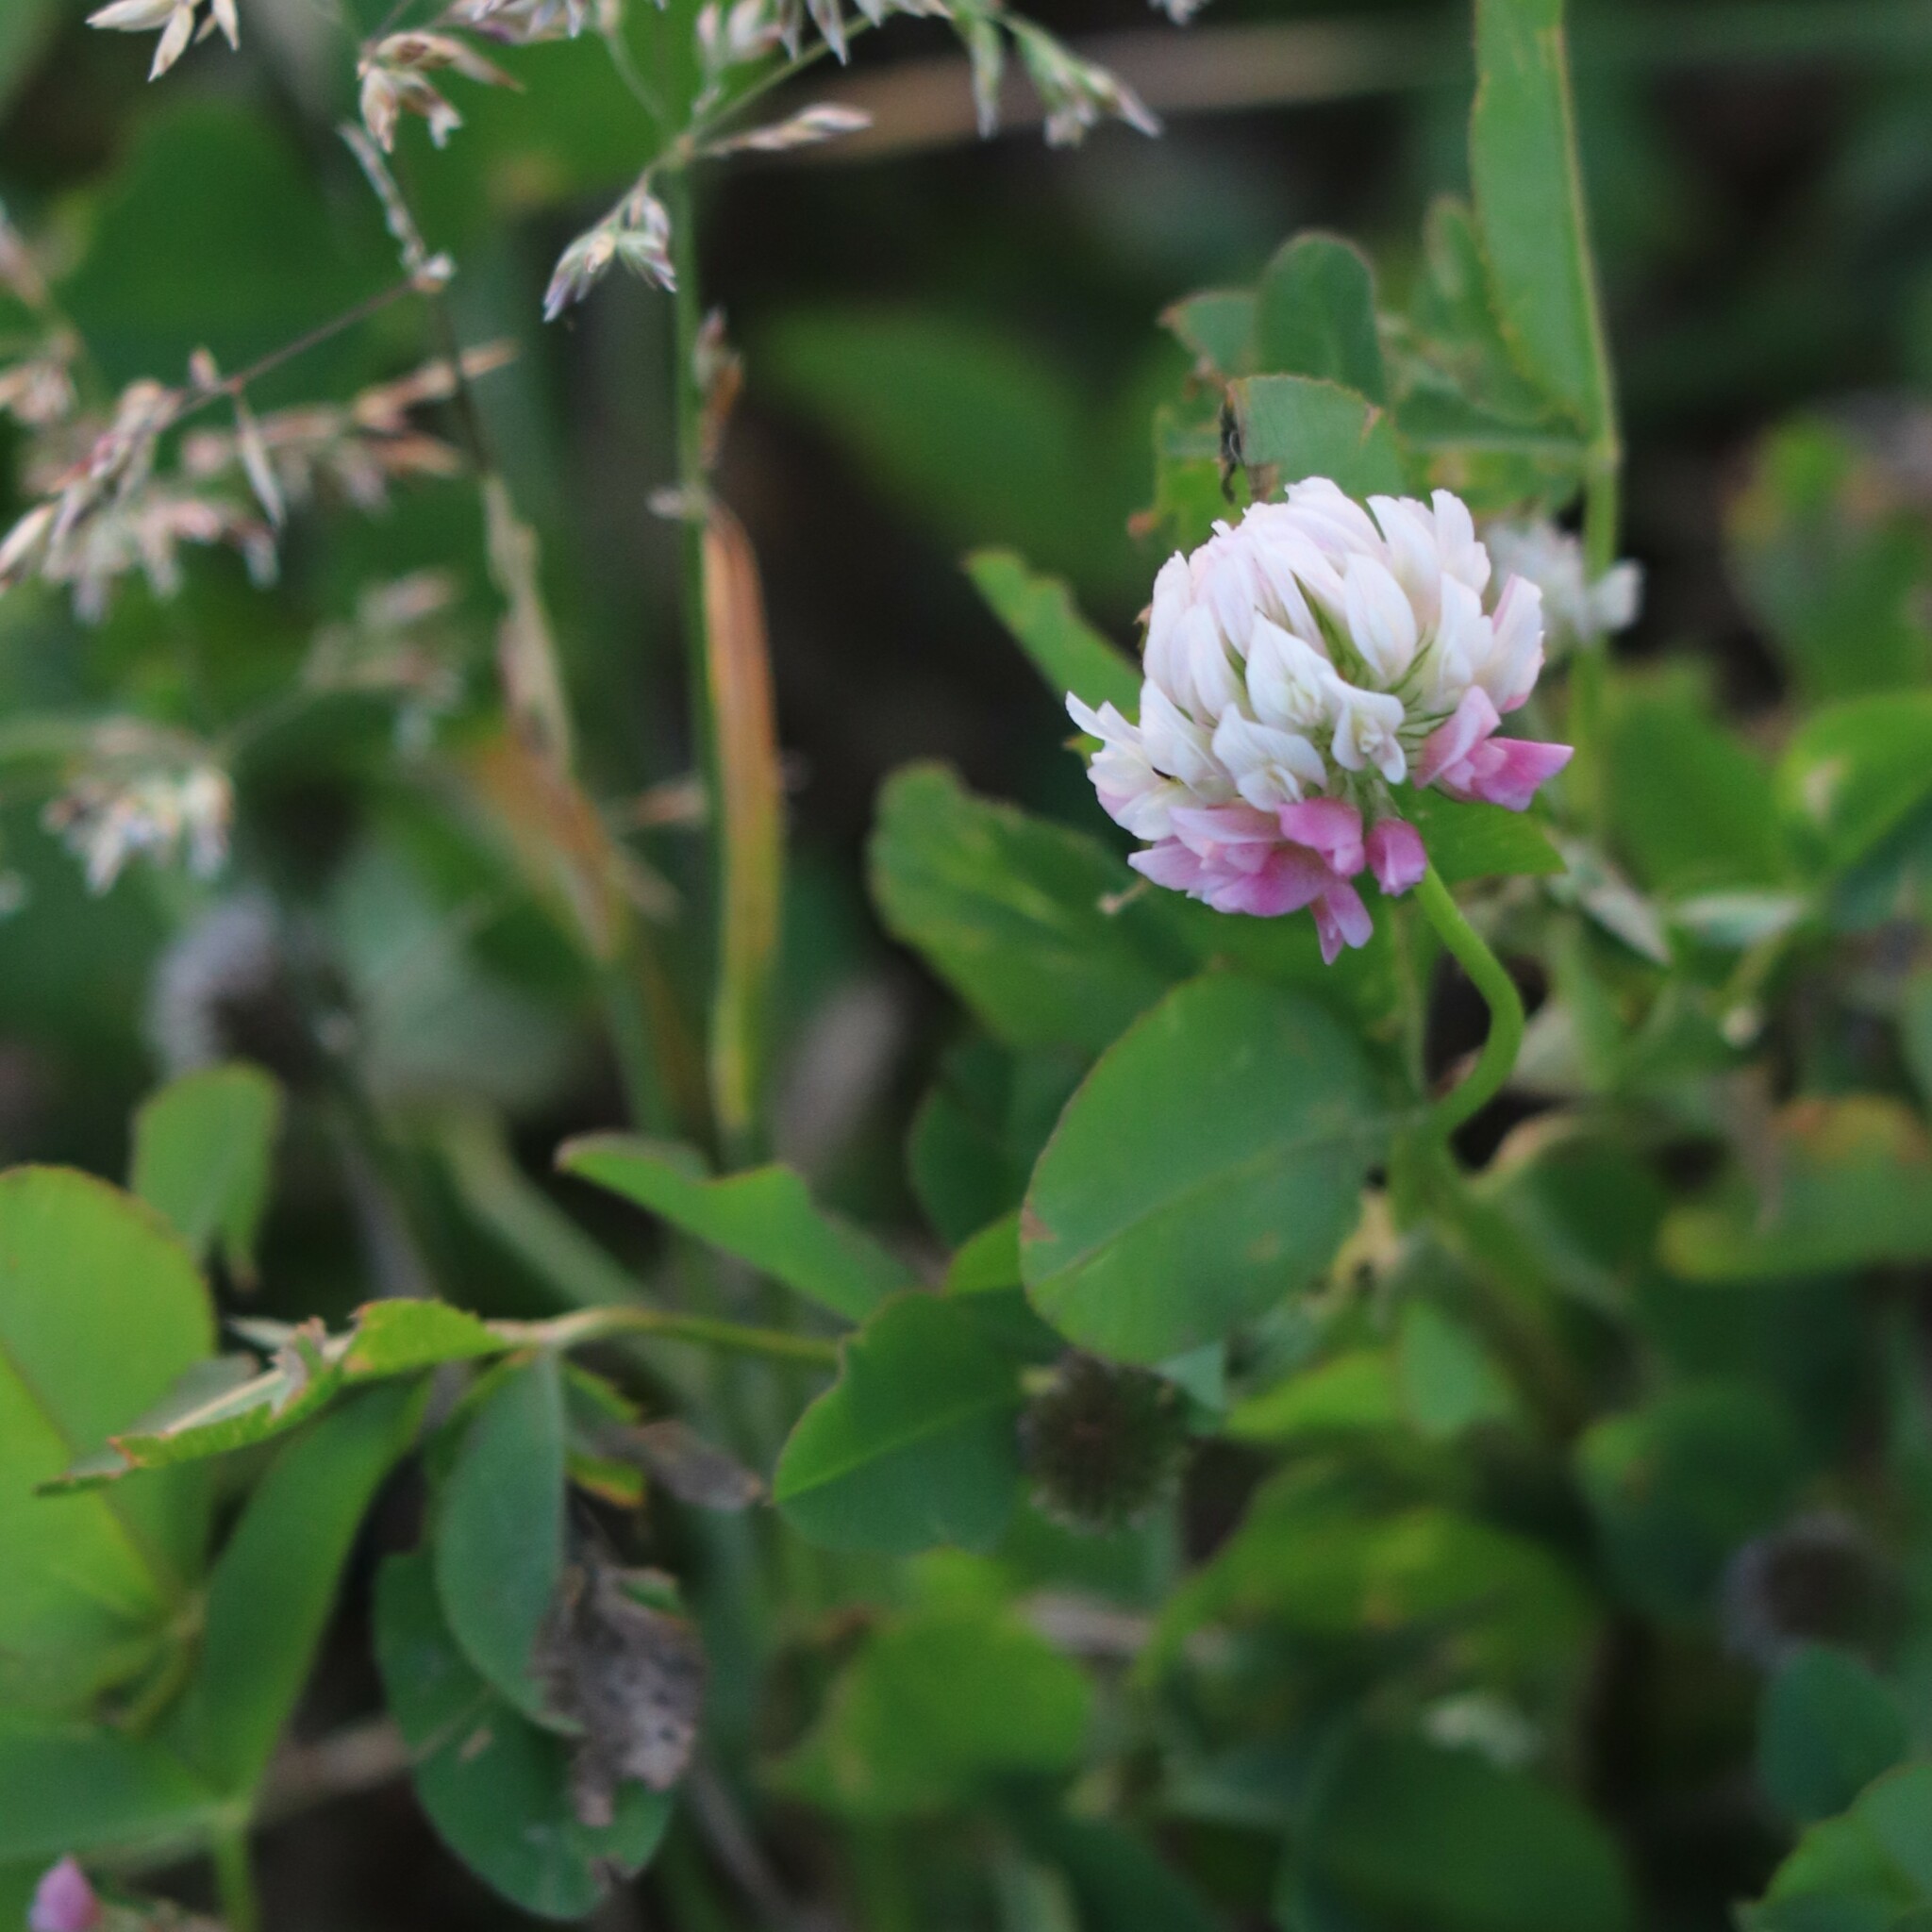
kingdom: Plantae
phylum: Tracheophyta
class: Magnoliopsida
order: Fabales
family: Fabaceae
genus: Trifolium
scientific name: Trifolium hybridum
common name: Alsike clover
